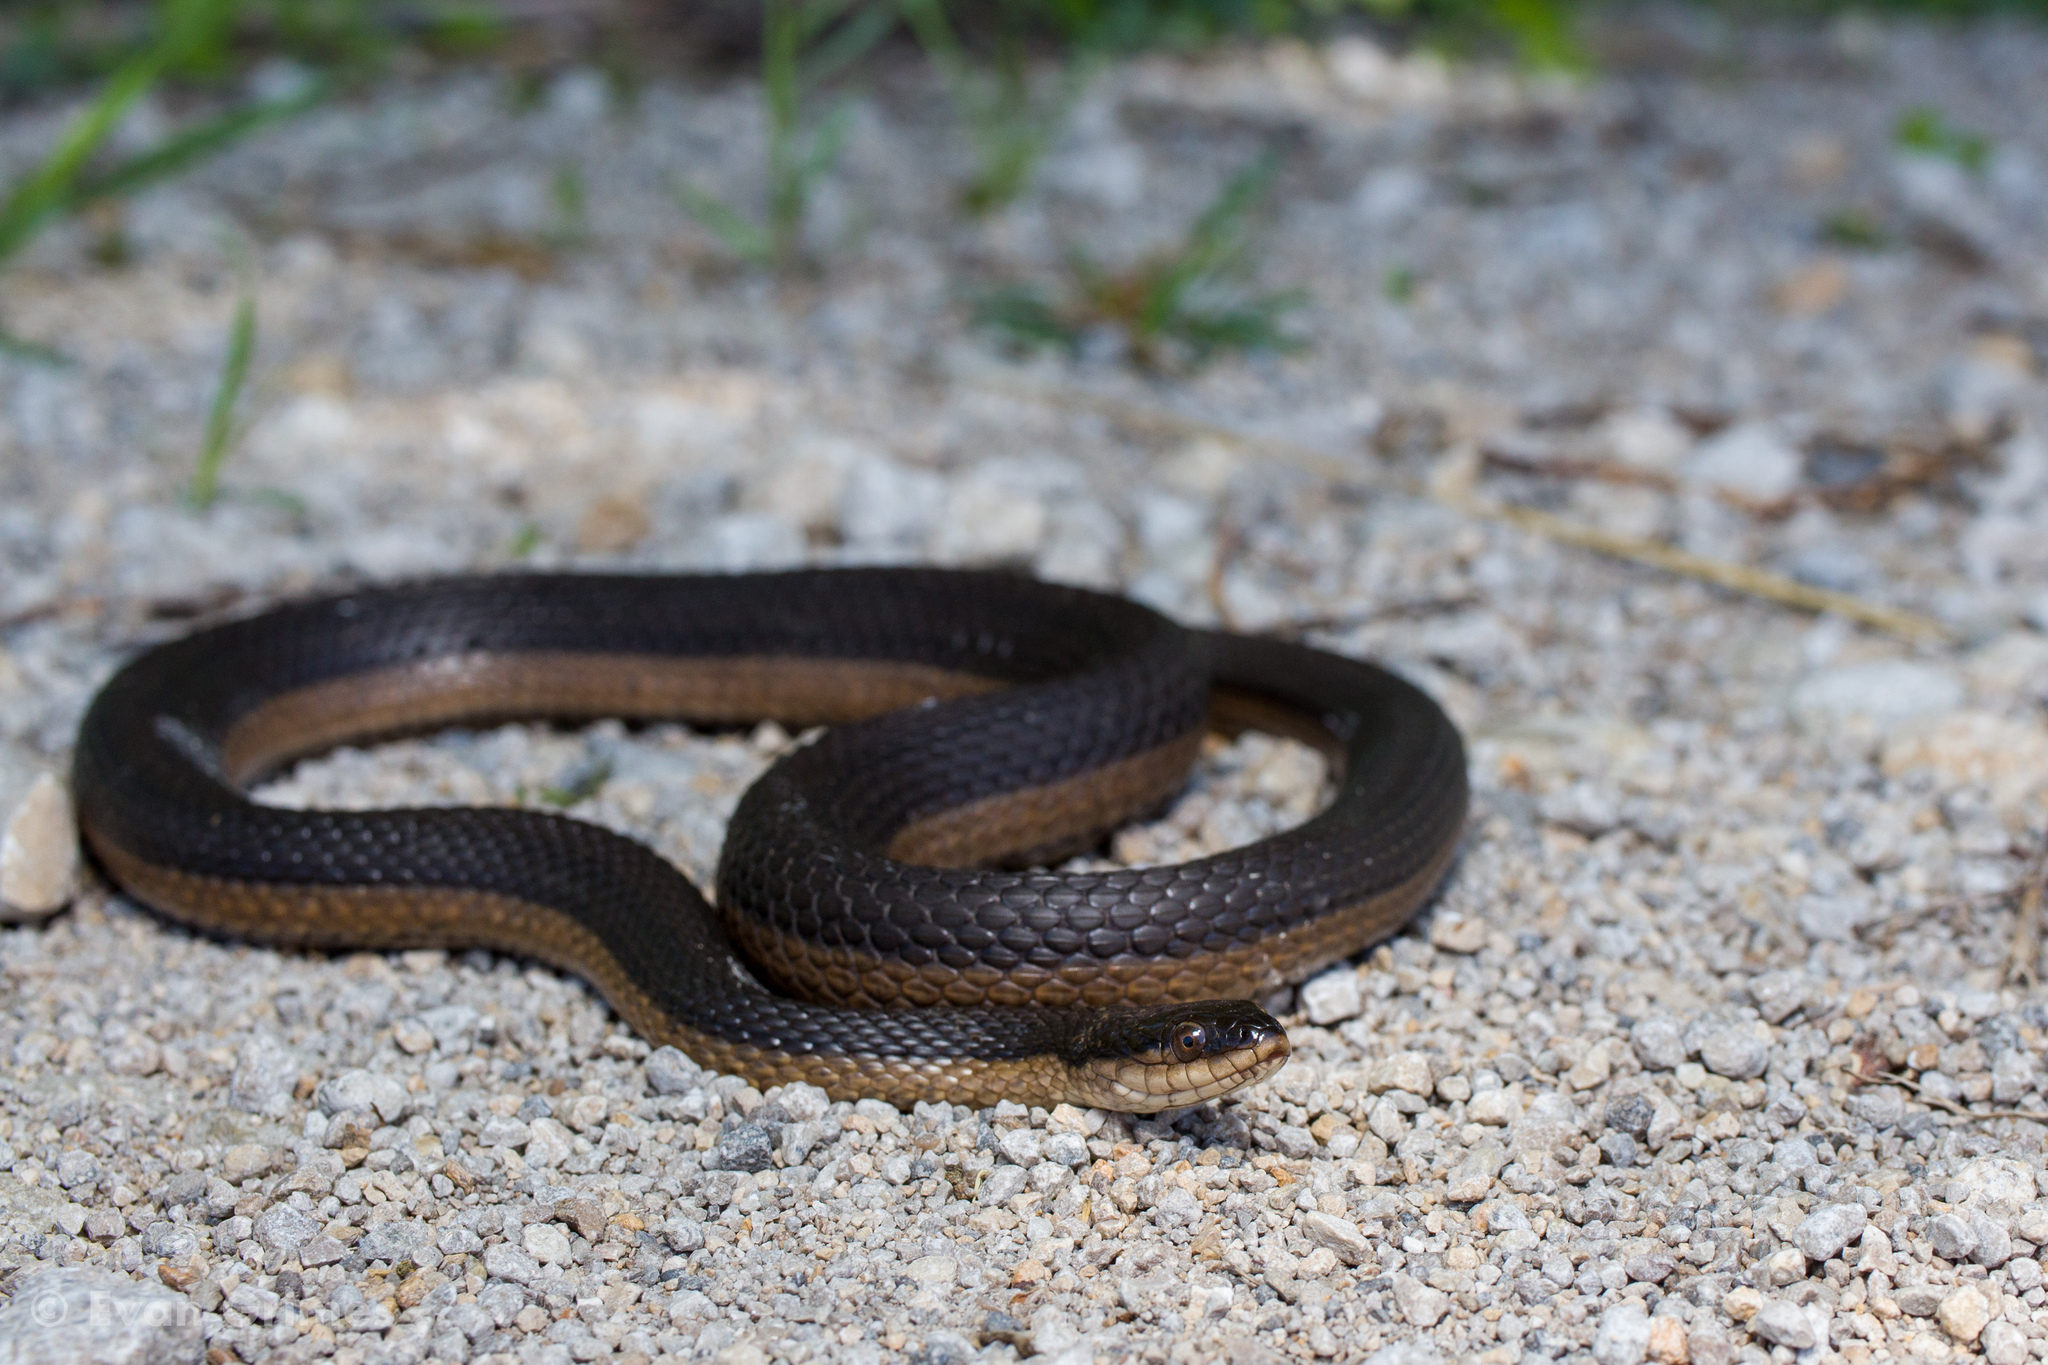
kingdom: Animalia
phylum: Chordata
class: Squamata
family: Colubridae
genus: Regina
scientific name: Regina grahamii
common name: Graham's crayfish snake
